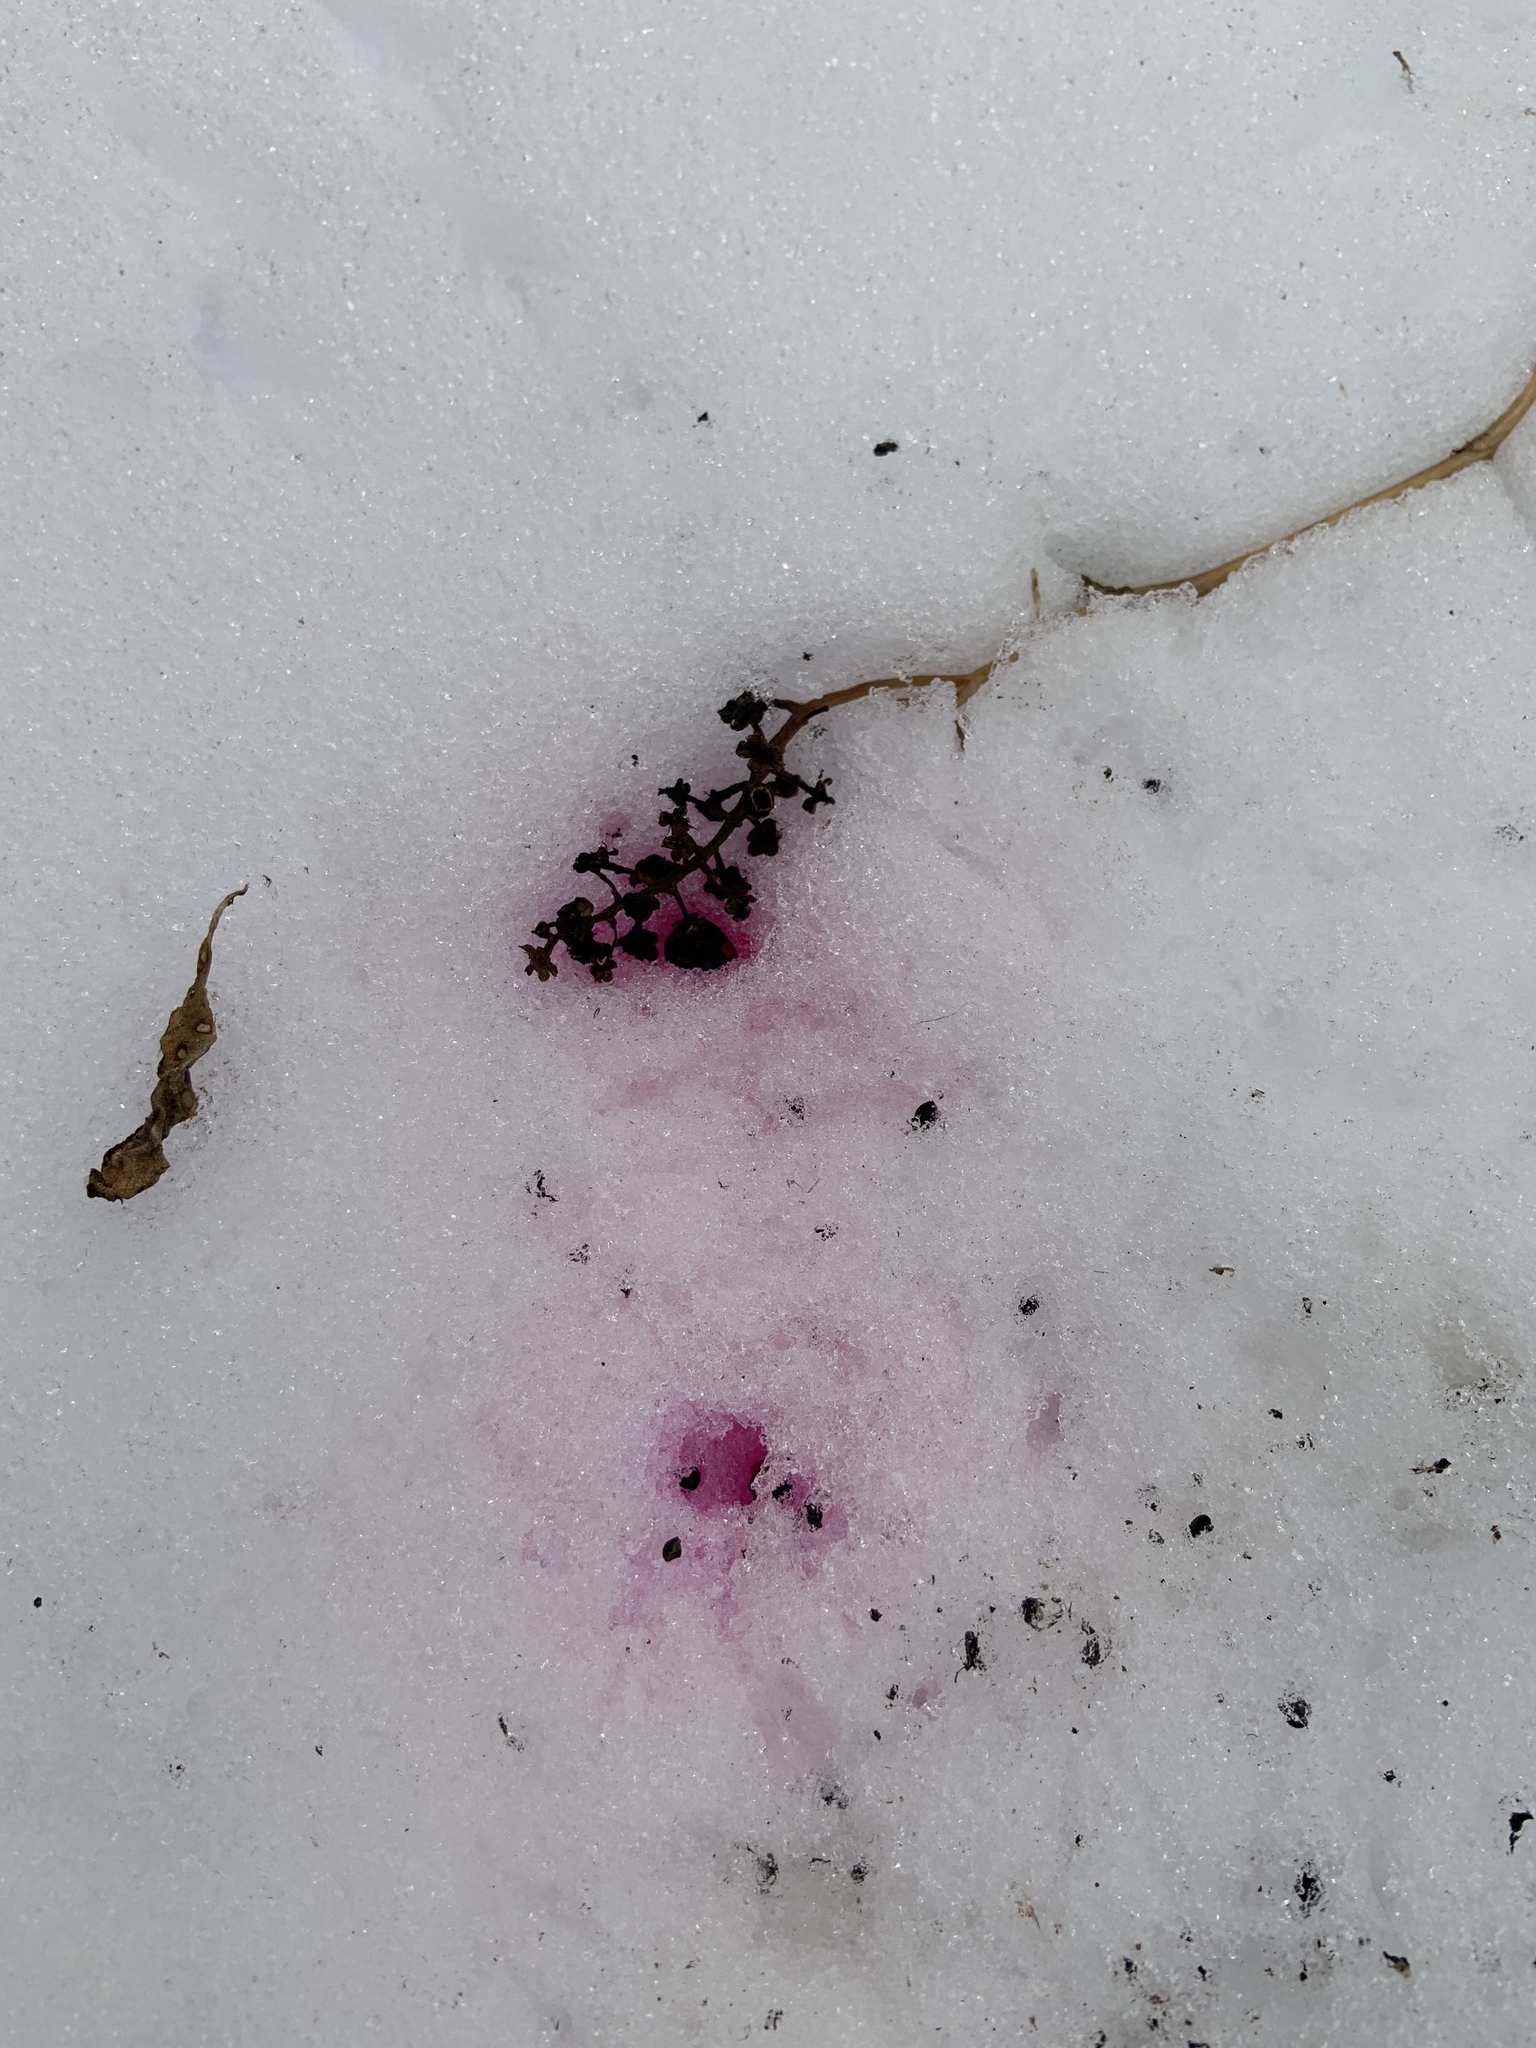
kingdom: Plantae
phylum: Tracheophyta
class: Magnoliopsida
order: Caryophyllales
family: Phytolaccaceae
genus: Phytolacca
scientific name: Phytolacca americana
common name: American pokeweed
